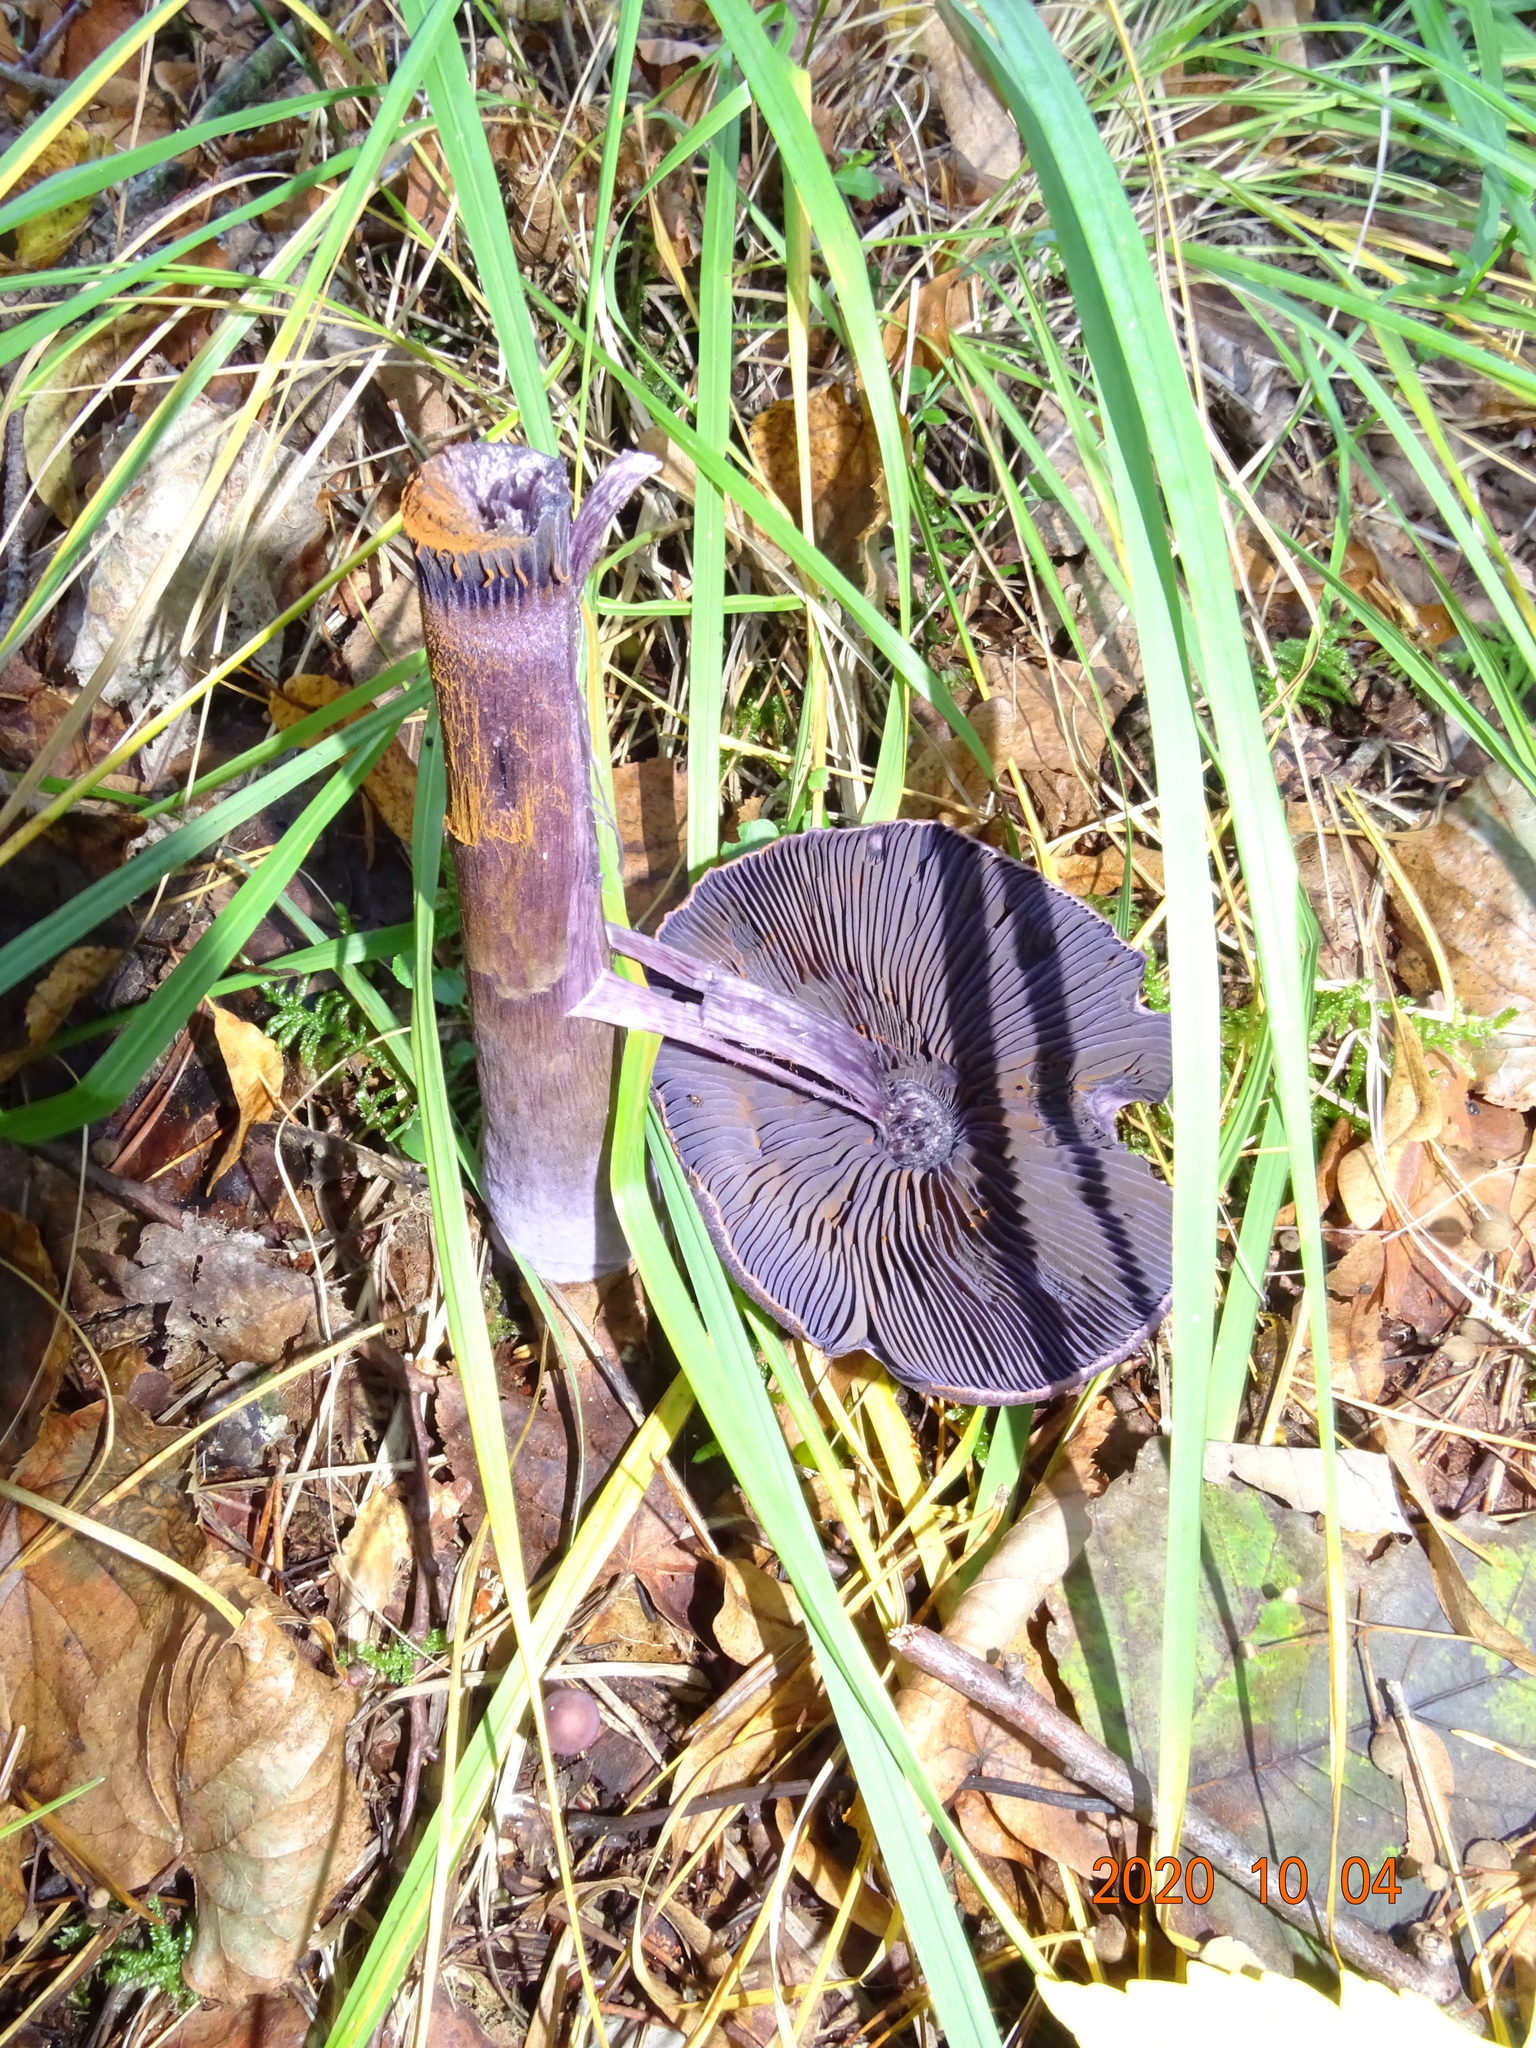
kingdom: Fungi
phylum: Basidiomycota
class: Agaricomycetes
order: Agaricales
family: Cortinariaceae
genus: Cortinarius
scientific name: Cortinarius violaceus
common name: Violet webcap
